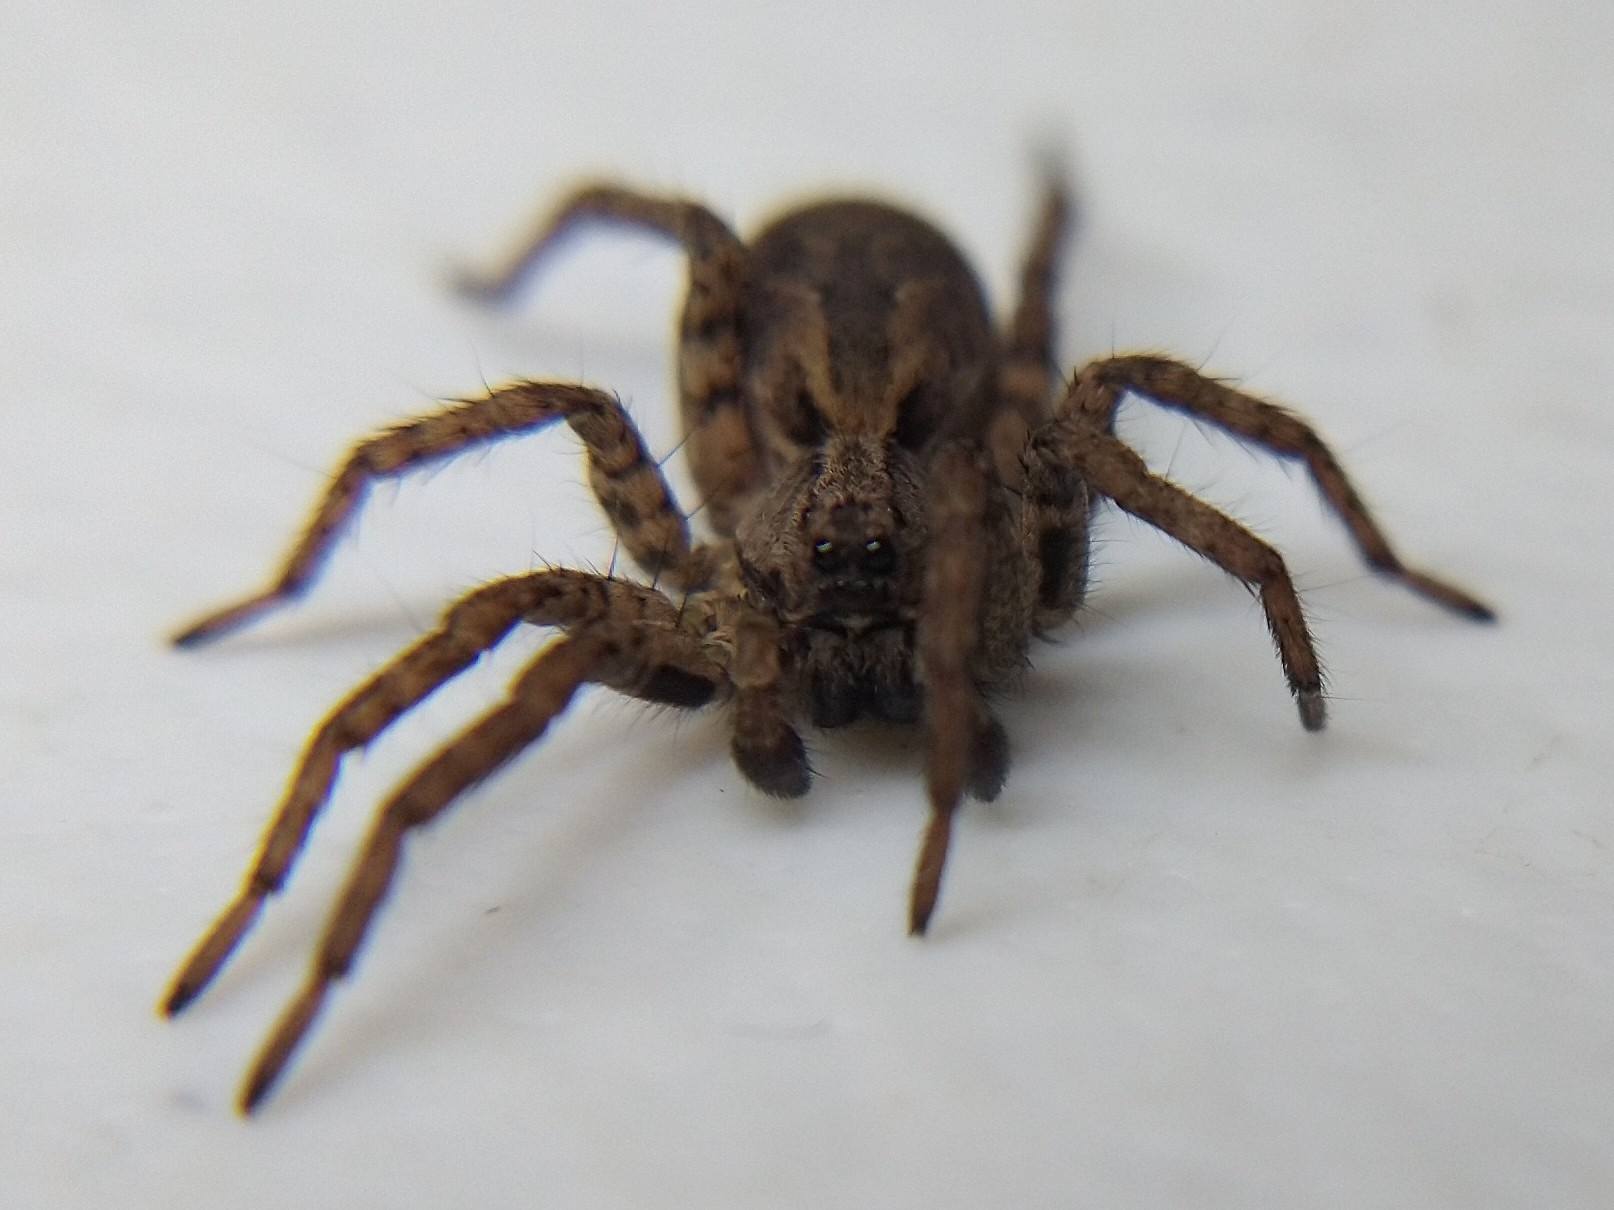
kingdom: Animalia
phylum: Arthropoda
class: Arachnida
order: Araneae
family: Lycosidae
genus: Alopecosa
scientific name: Alopecosa kochi
